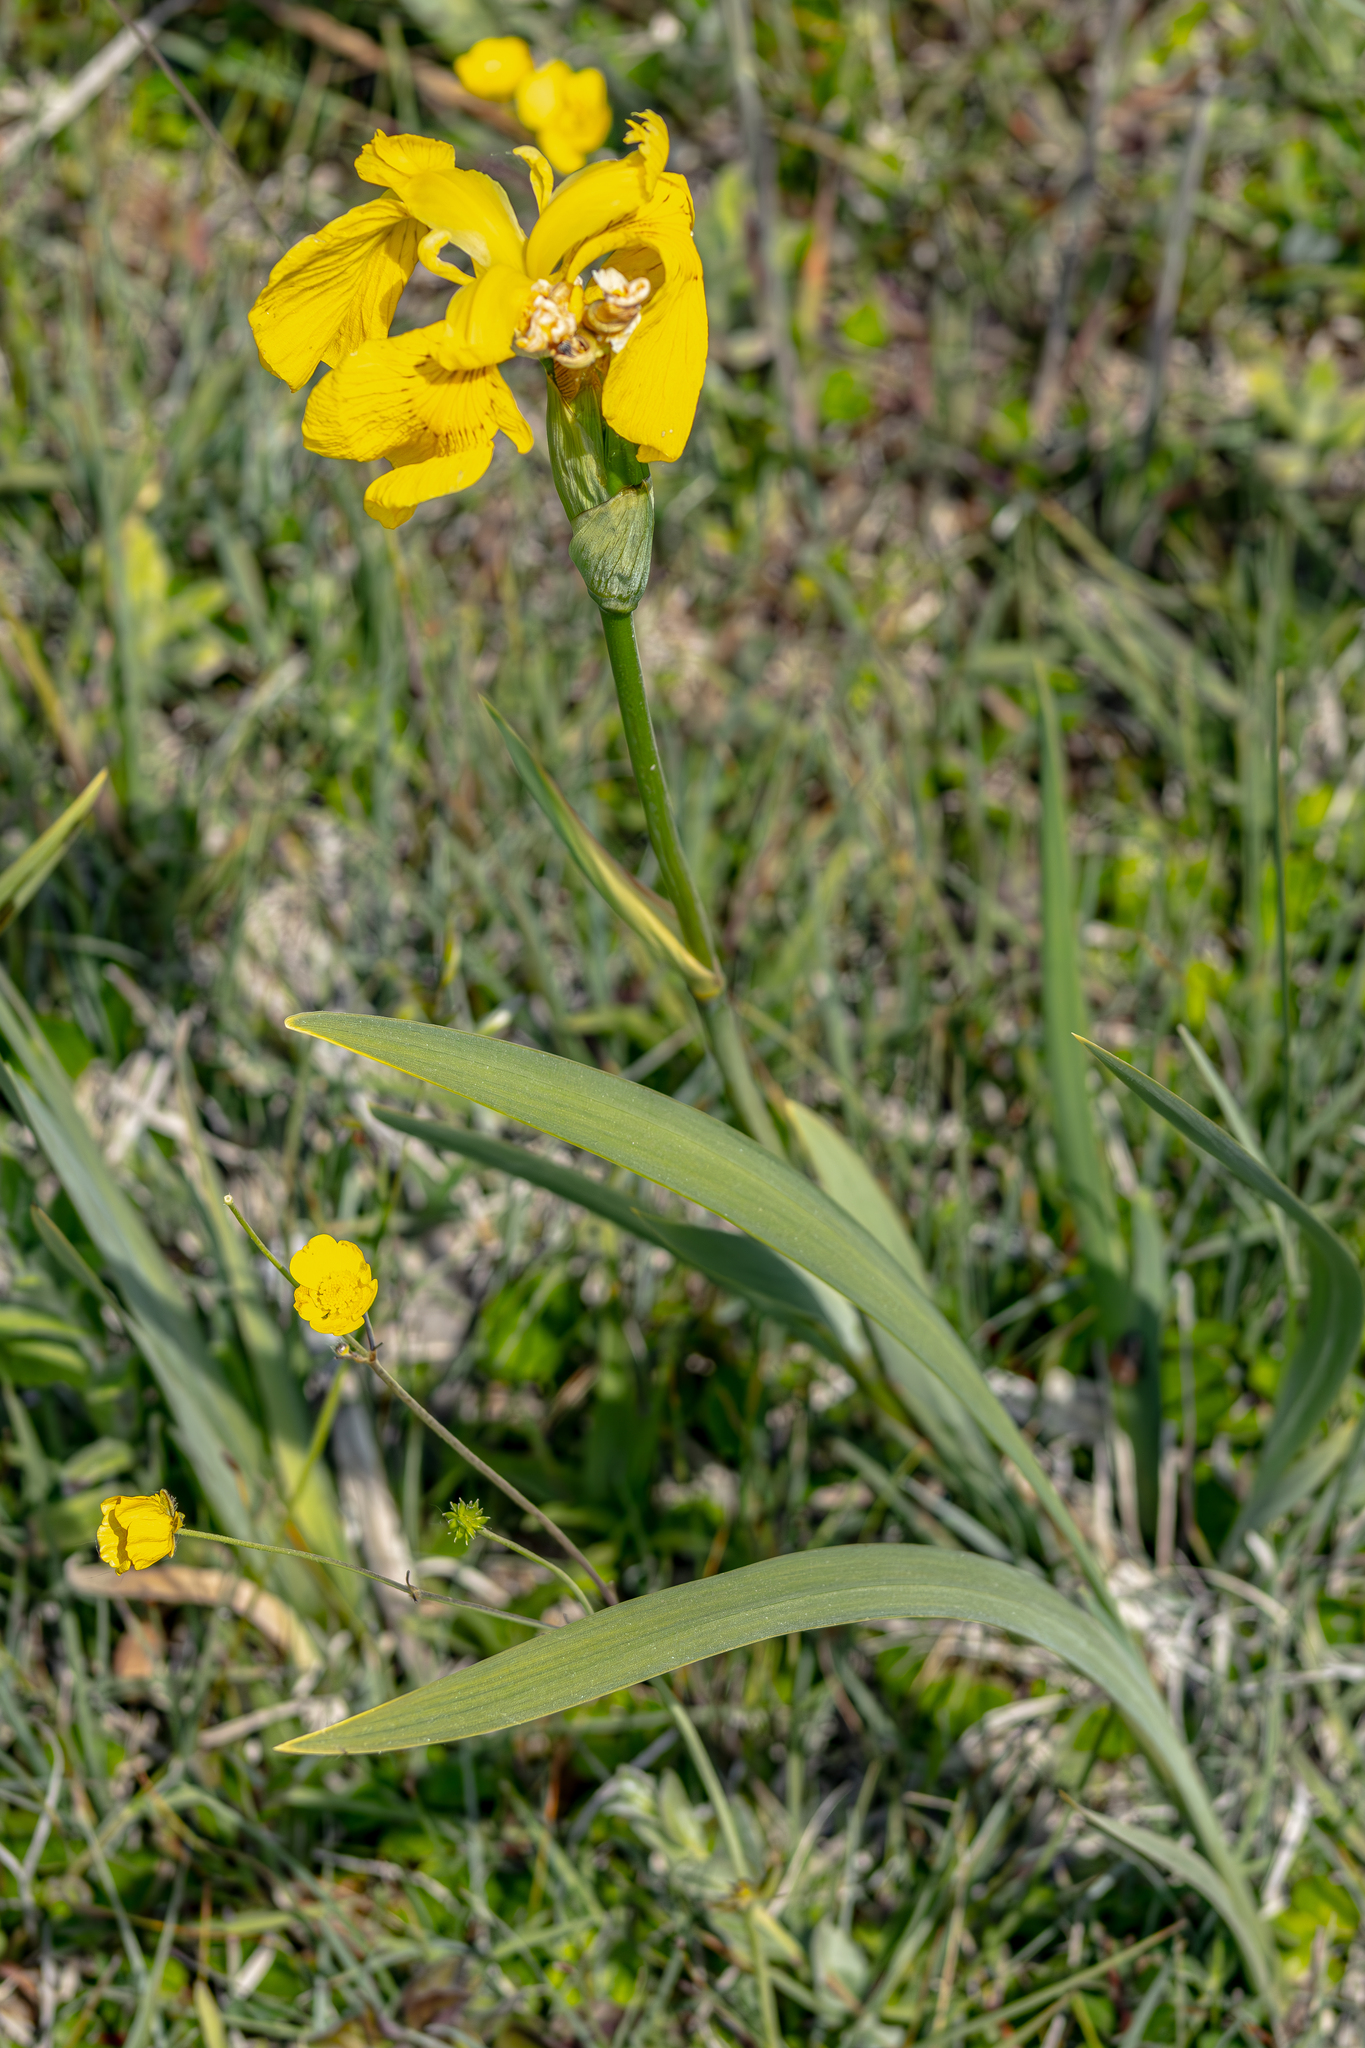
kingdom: Plantae
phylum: Tracheophyta
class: Liliopsida
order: Asparagales
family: Iridaceae
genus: Iris
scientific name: Iris pseudacorus
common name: Yellow flag
